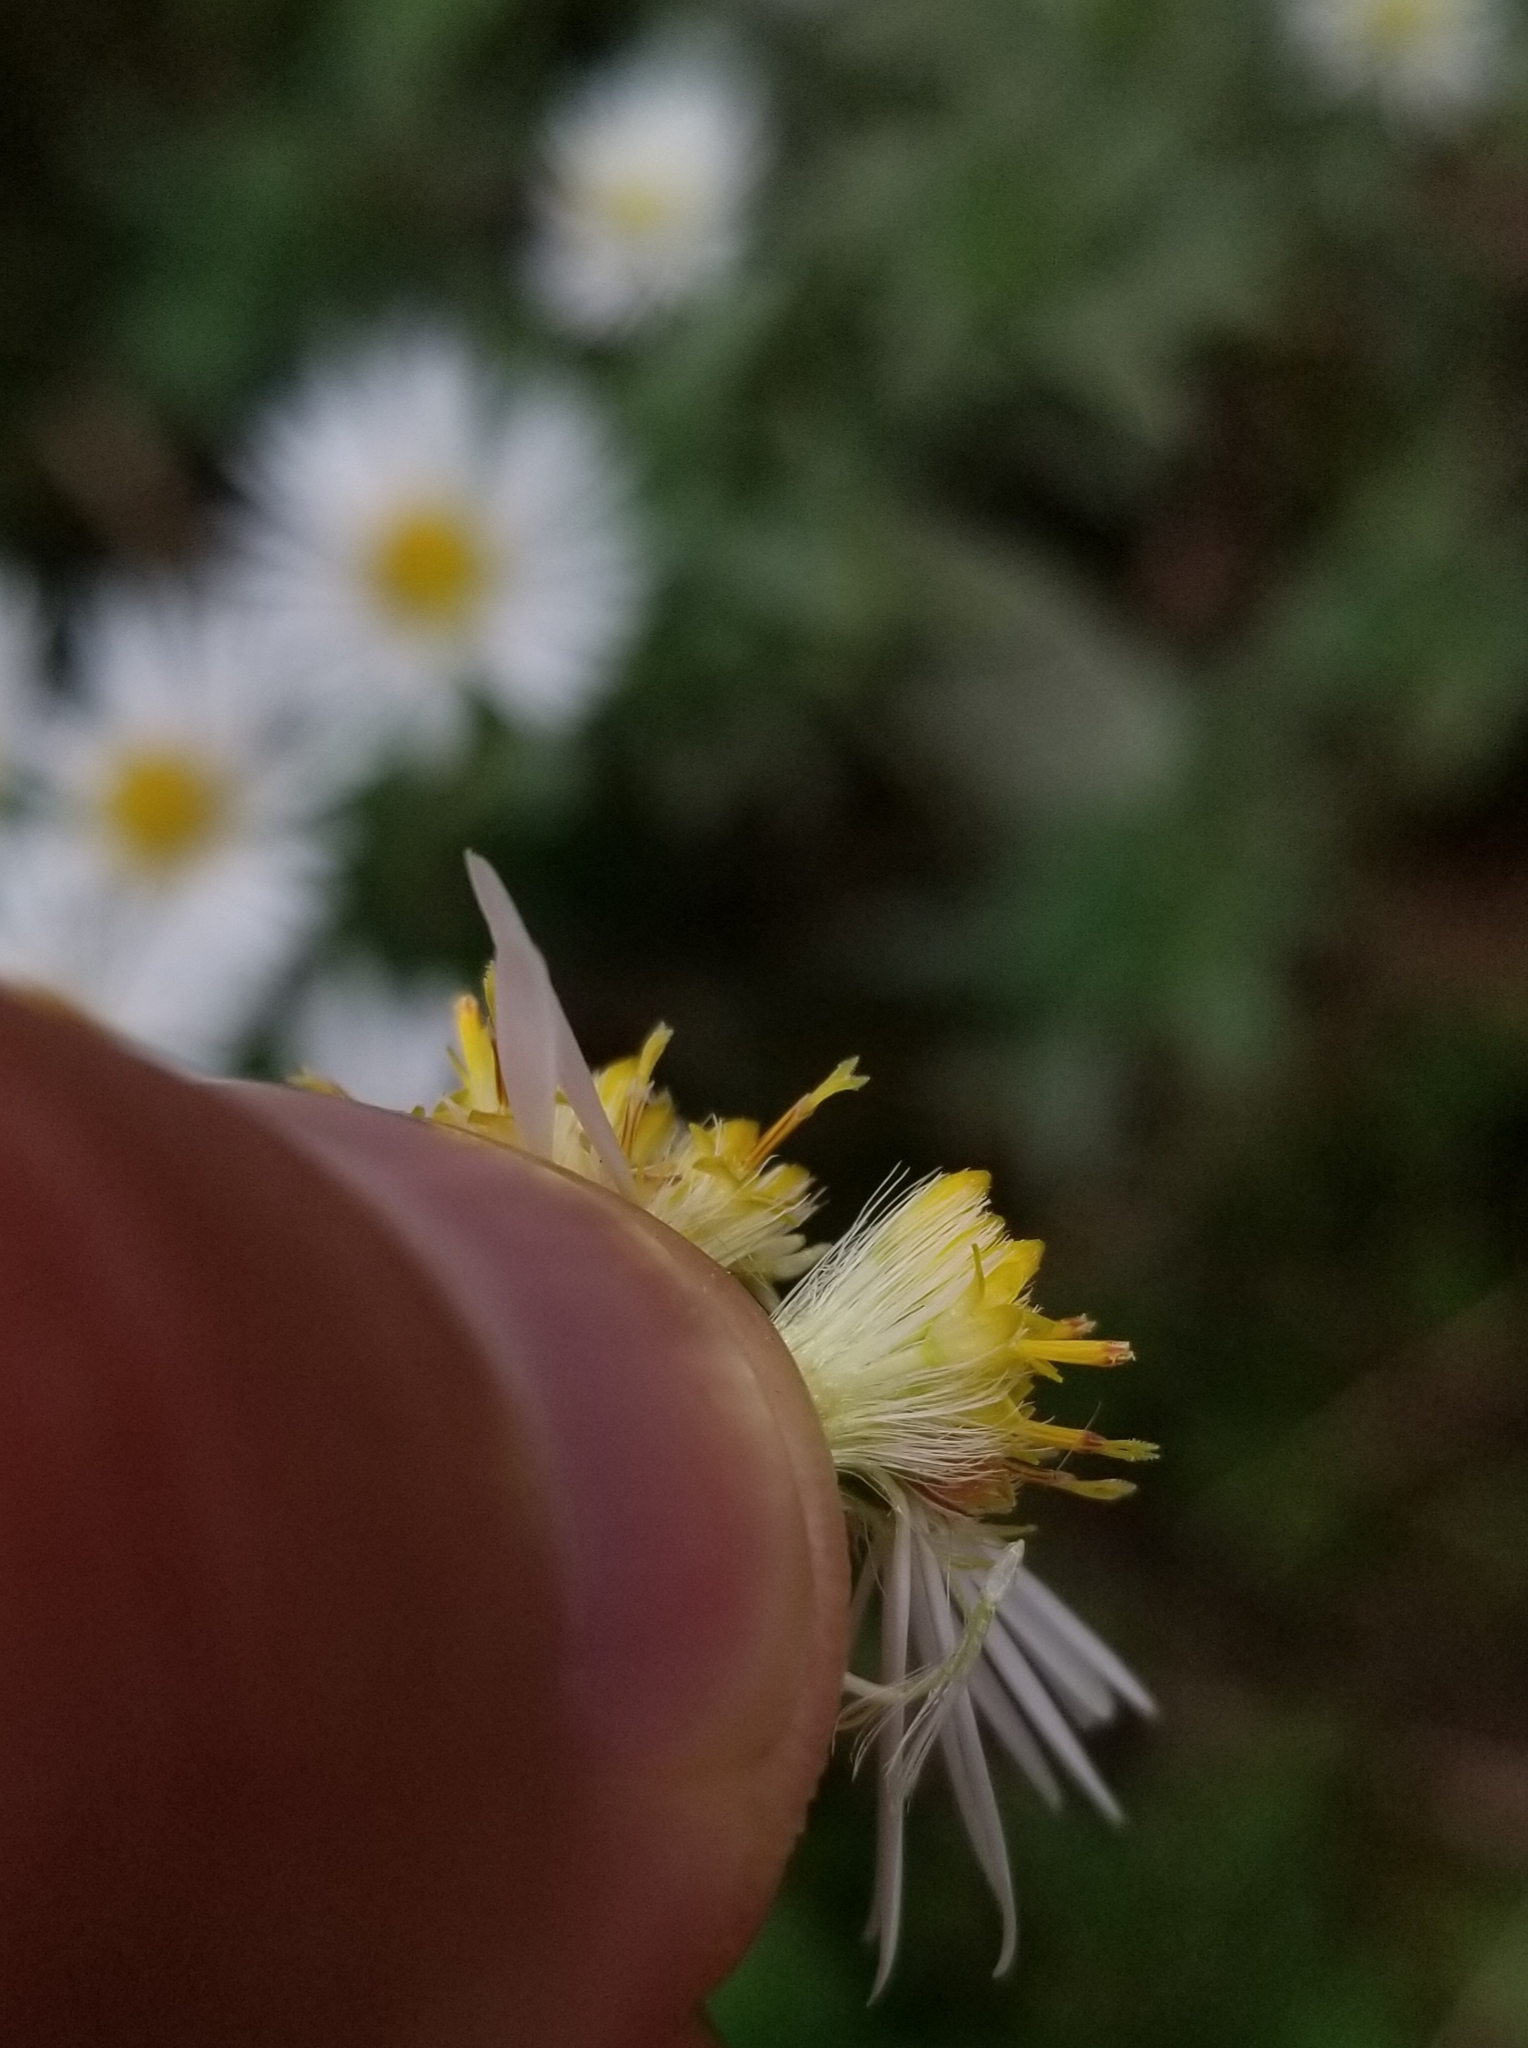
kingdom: Plantae
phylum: Tracheophyta
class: Magnoliopsida
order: Asterales
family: Asteraceae
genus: Symphyotrichum
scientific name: Symphyotrichum lanceolatum
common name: Panicled aster
